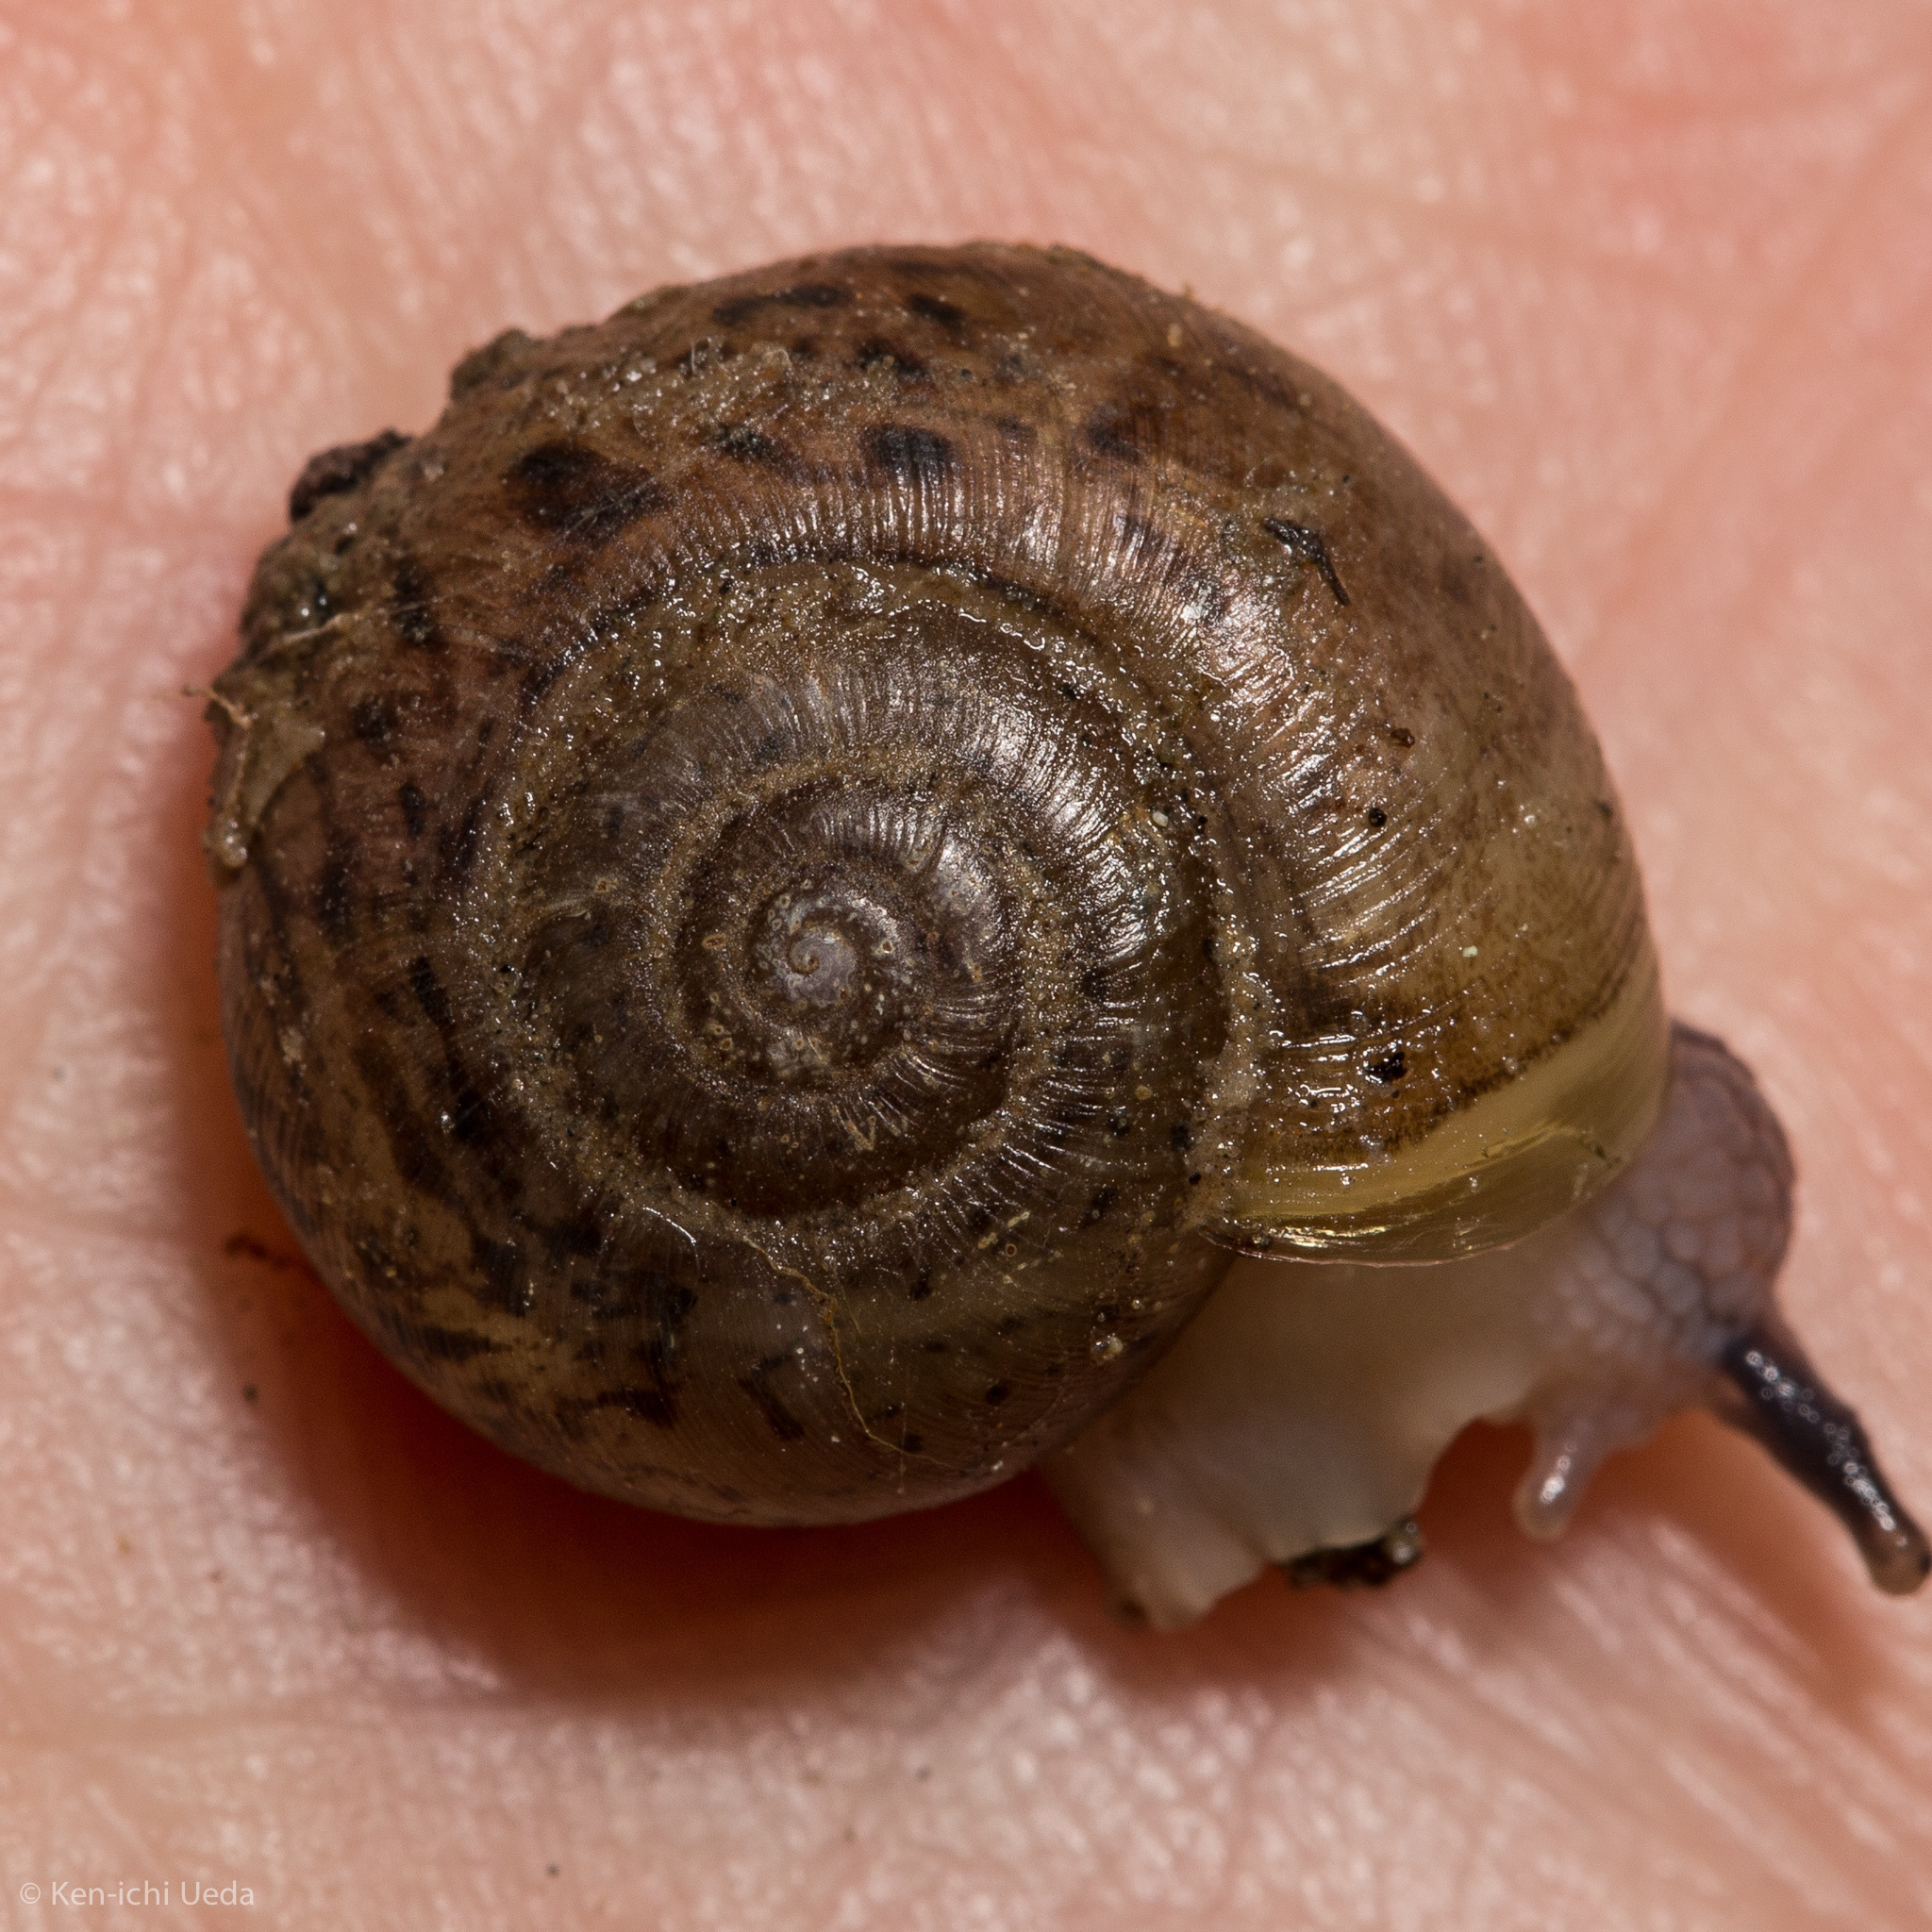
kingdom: Animalia
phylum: Mollusca
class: Gastropoda
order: Stylommatophora
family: Haplotrematidae
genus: Haplotrema
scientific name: Haplotrema minimum
